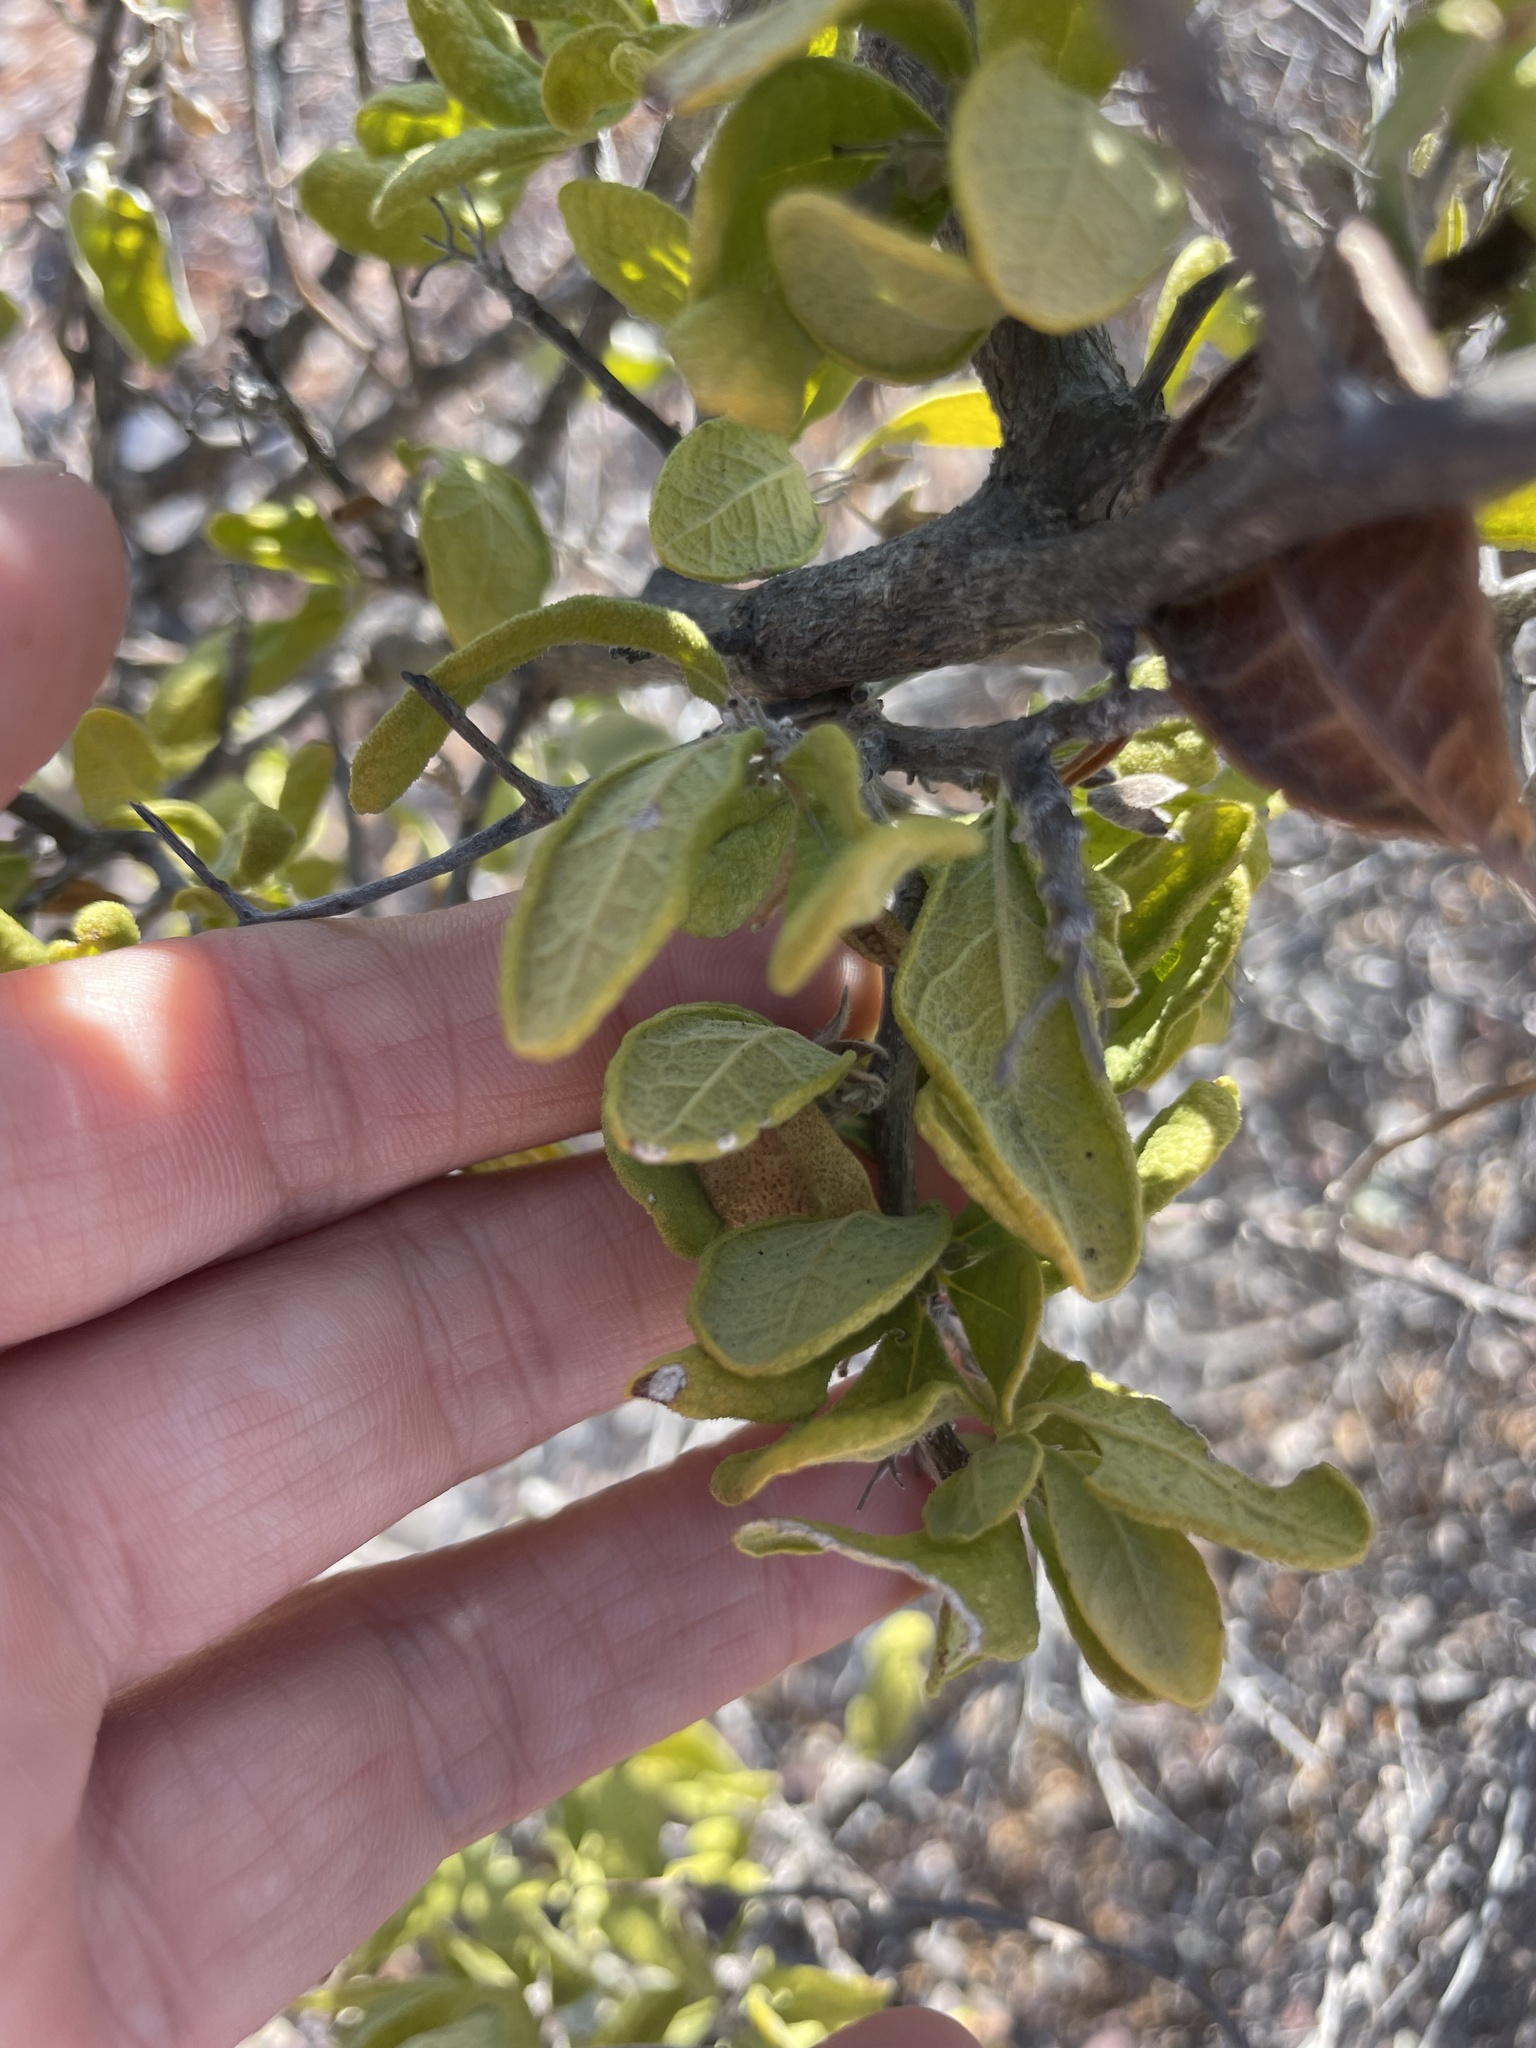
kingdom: Plantae
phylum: Tracheophyta
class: Magnoliopsida
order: Boraginales
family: Ehretiaceae
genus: Bourreria
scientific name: Bourreria sonorae
